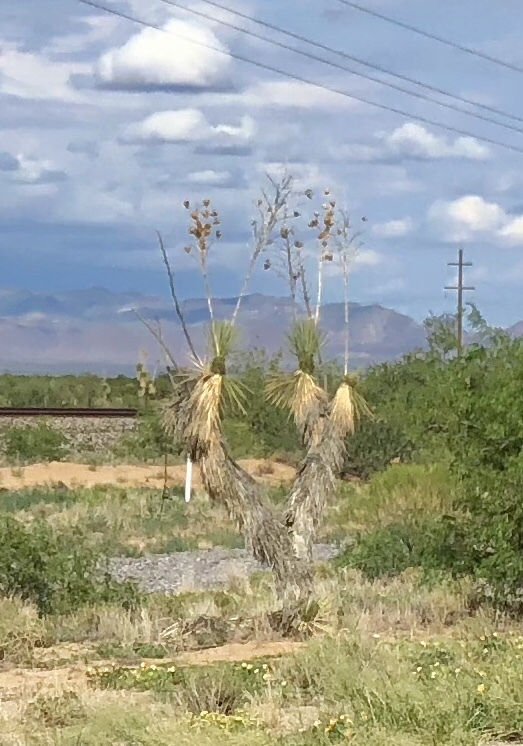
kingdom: Plantae
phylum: Tracheophyta
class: Liliopsida
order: Asparagales
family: Asparagaceae
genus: Yucca
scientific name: Yucca elata
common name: Palmella
